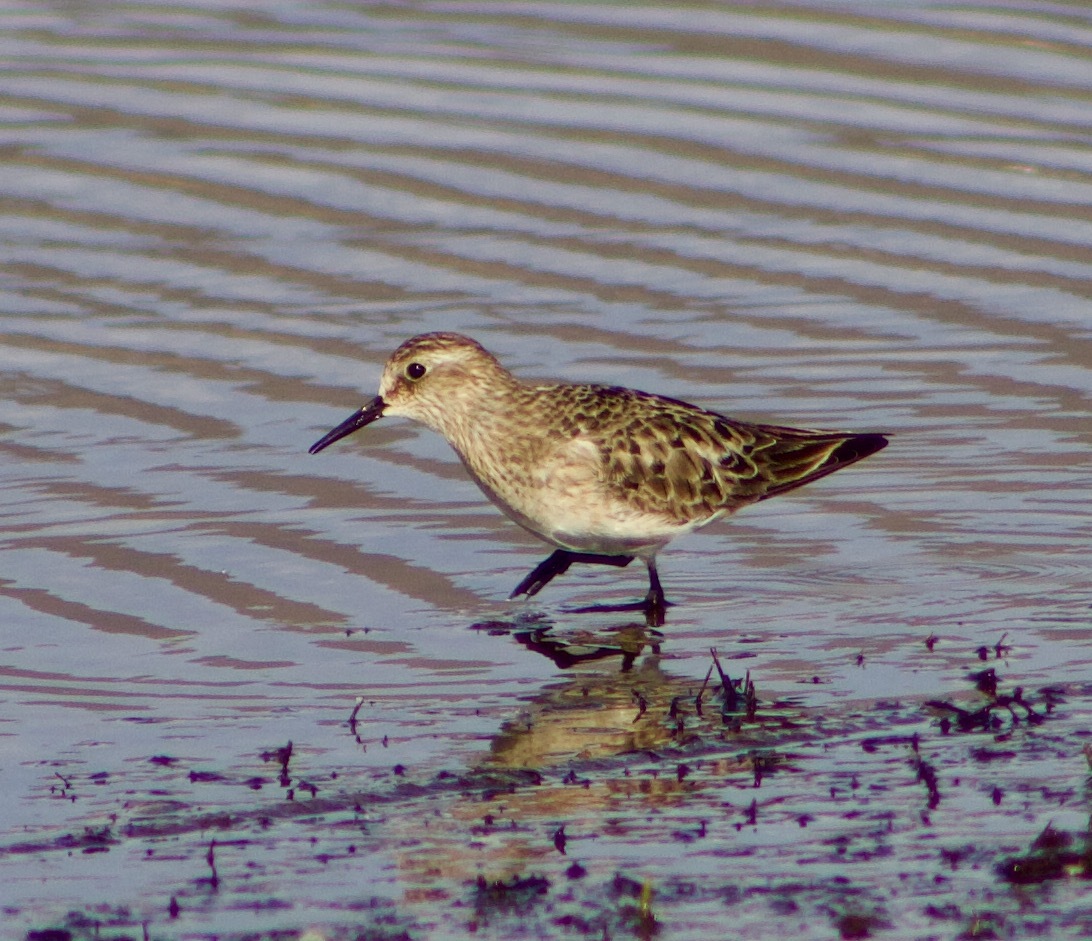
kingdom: Animalia
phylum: Chordata
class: Aves
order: Charadriiformes
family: Scolopacidae
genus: Calidris
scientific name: Calidris bairdii
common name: Baird's sandpiper
